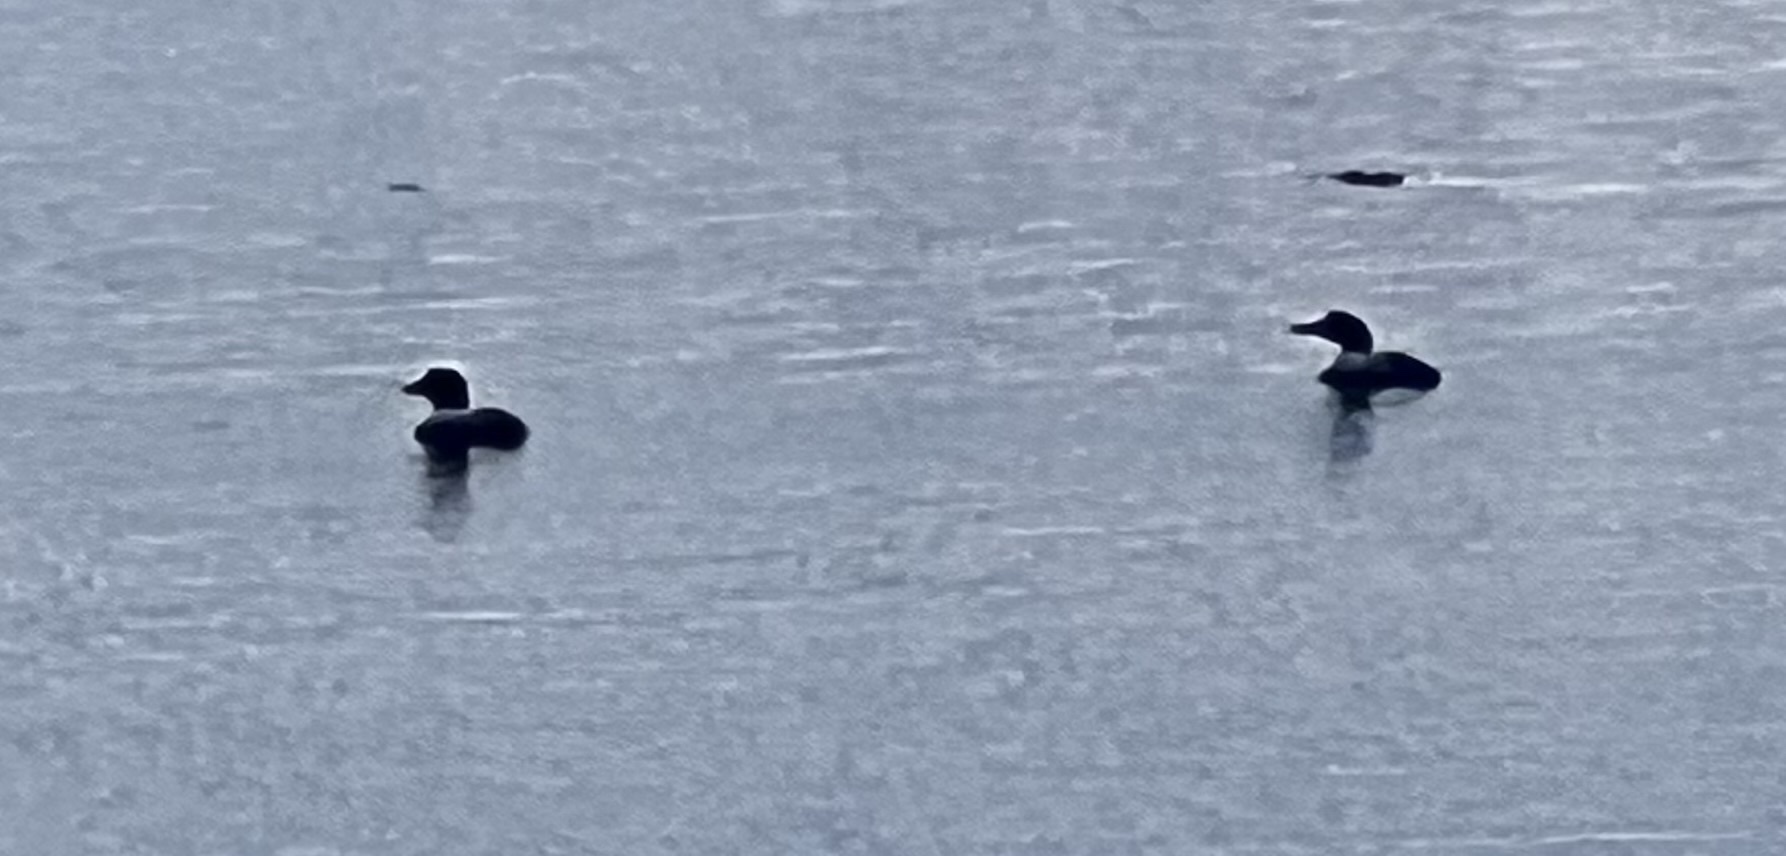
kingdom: Animalia
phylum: Chordata
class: Aves
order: Gaviiformes
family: Gaviidae
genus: Gavia
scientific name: Gavia immer
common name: Common loon
